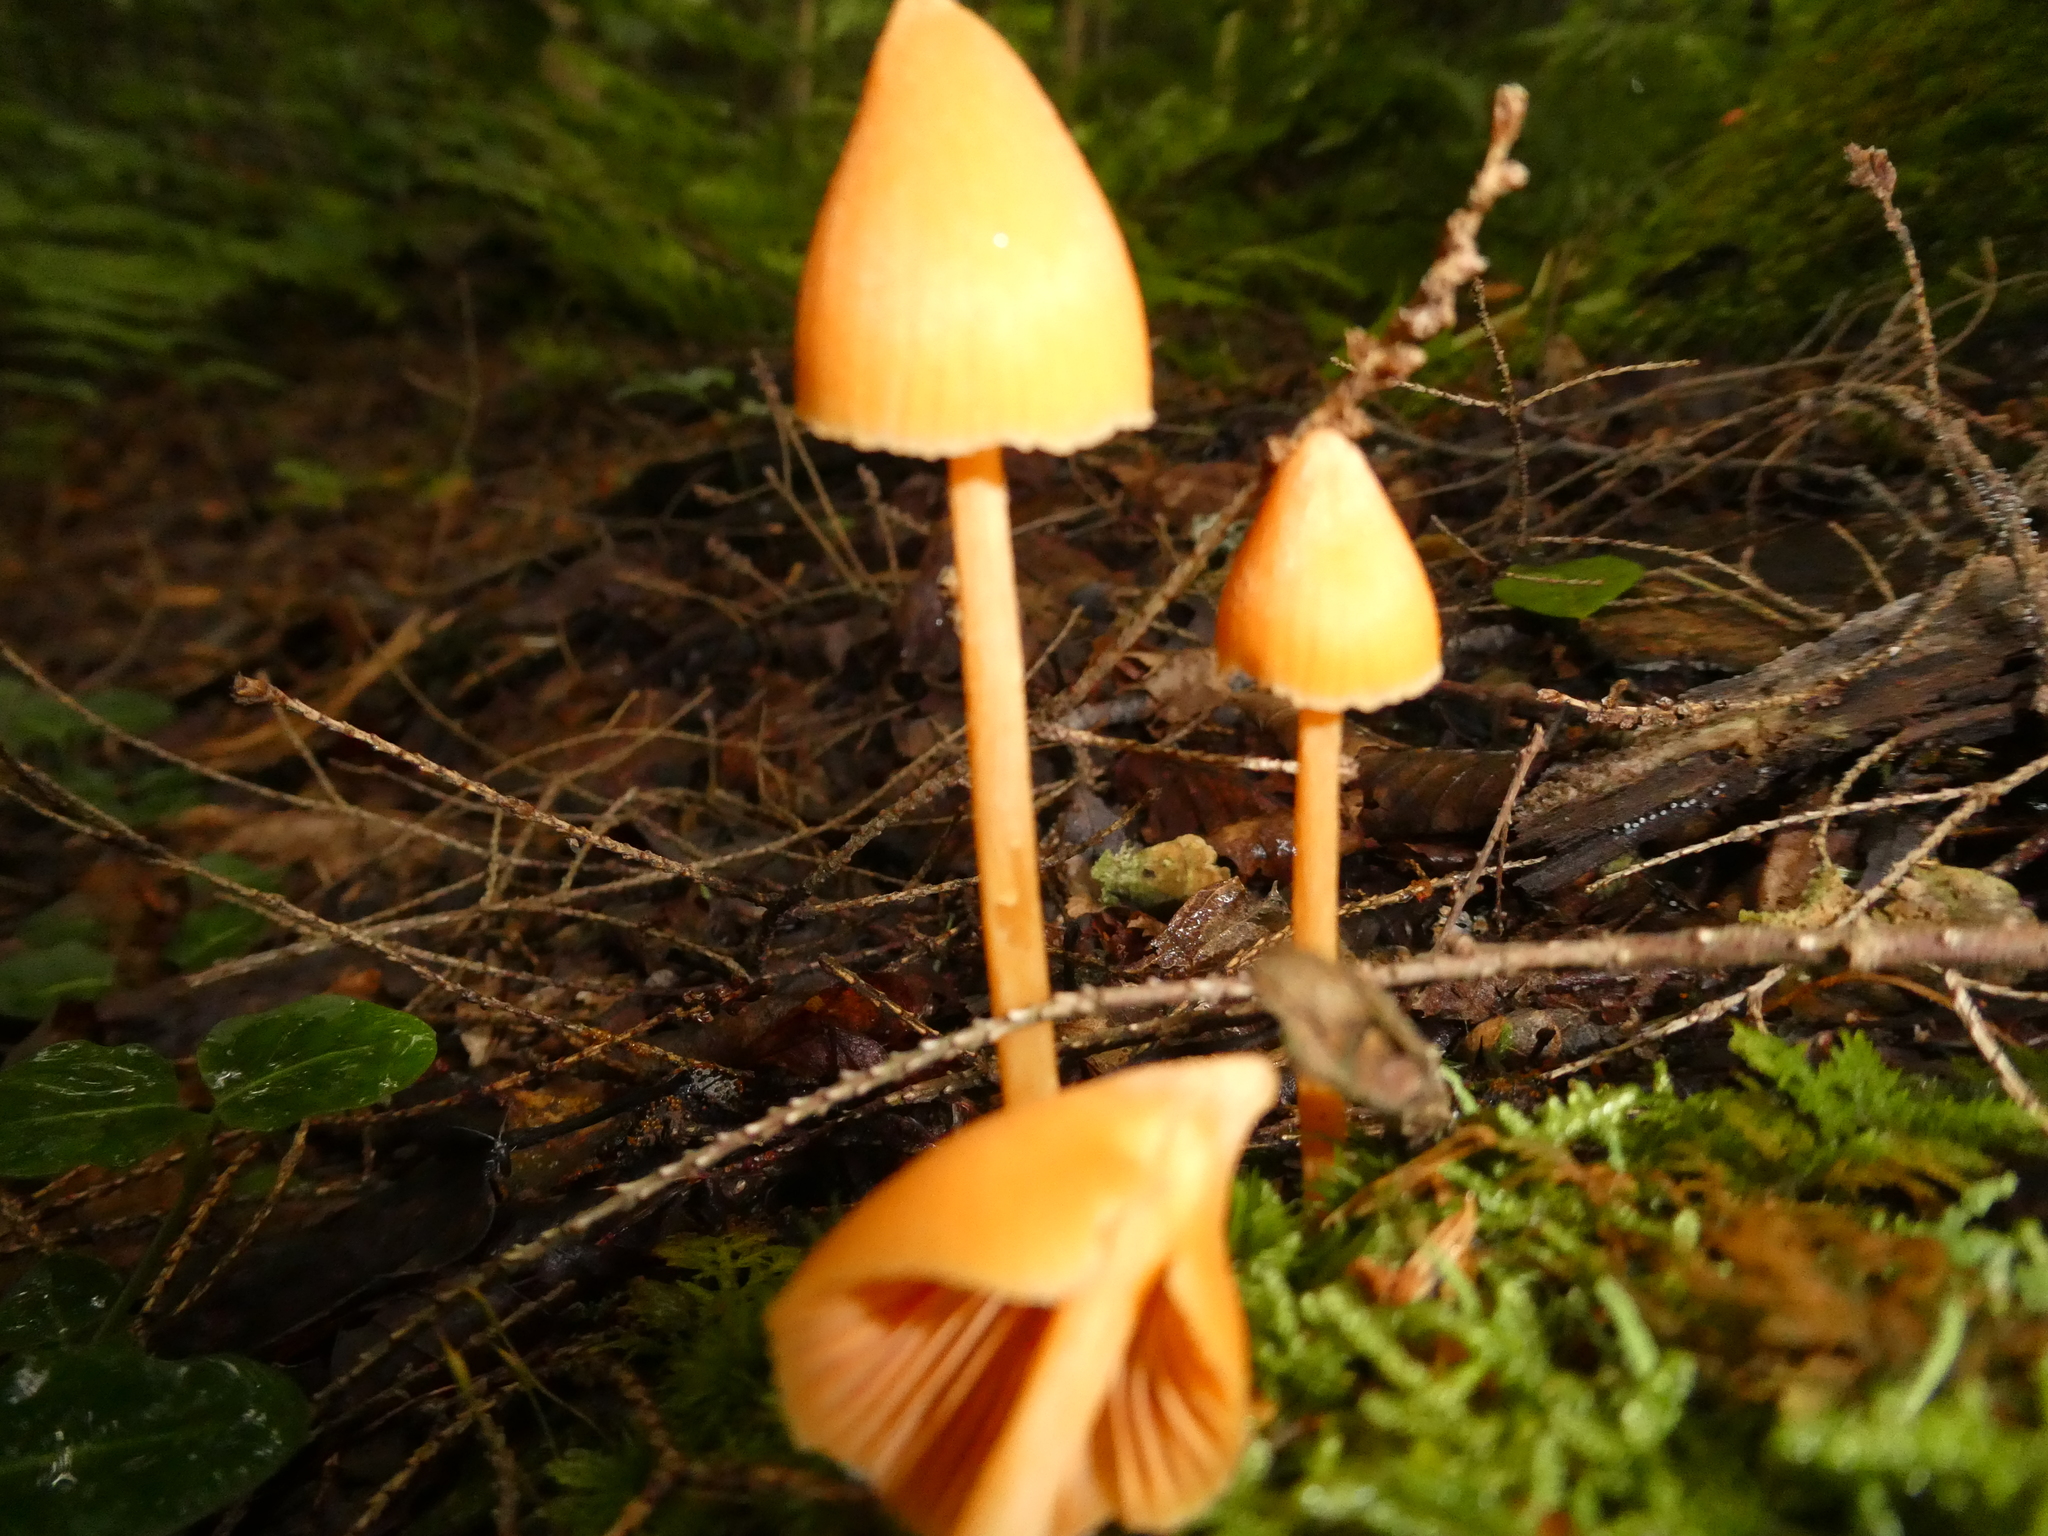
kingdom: Fungi
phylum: Basidiomycota
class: Agaricomycetes
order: Agaricales
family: Entolomataceae
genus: Entoloma
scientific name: Entoloma quadratum
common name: Salmon pinkgill
